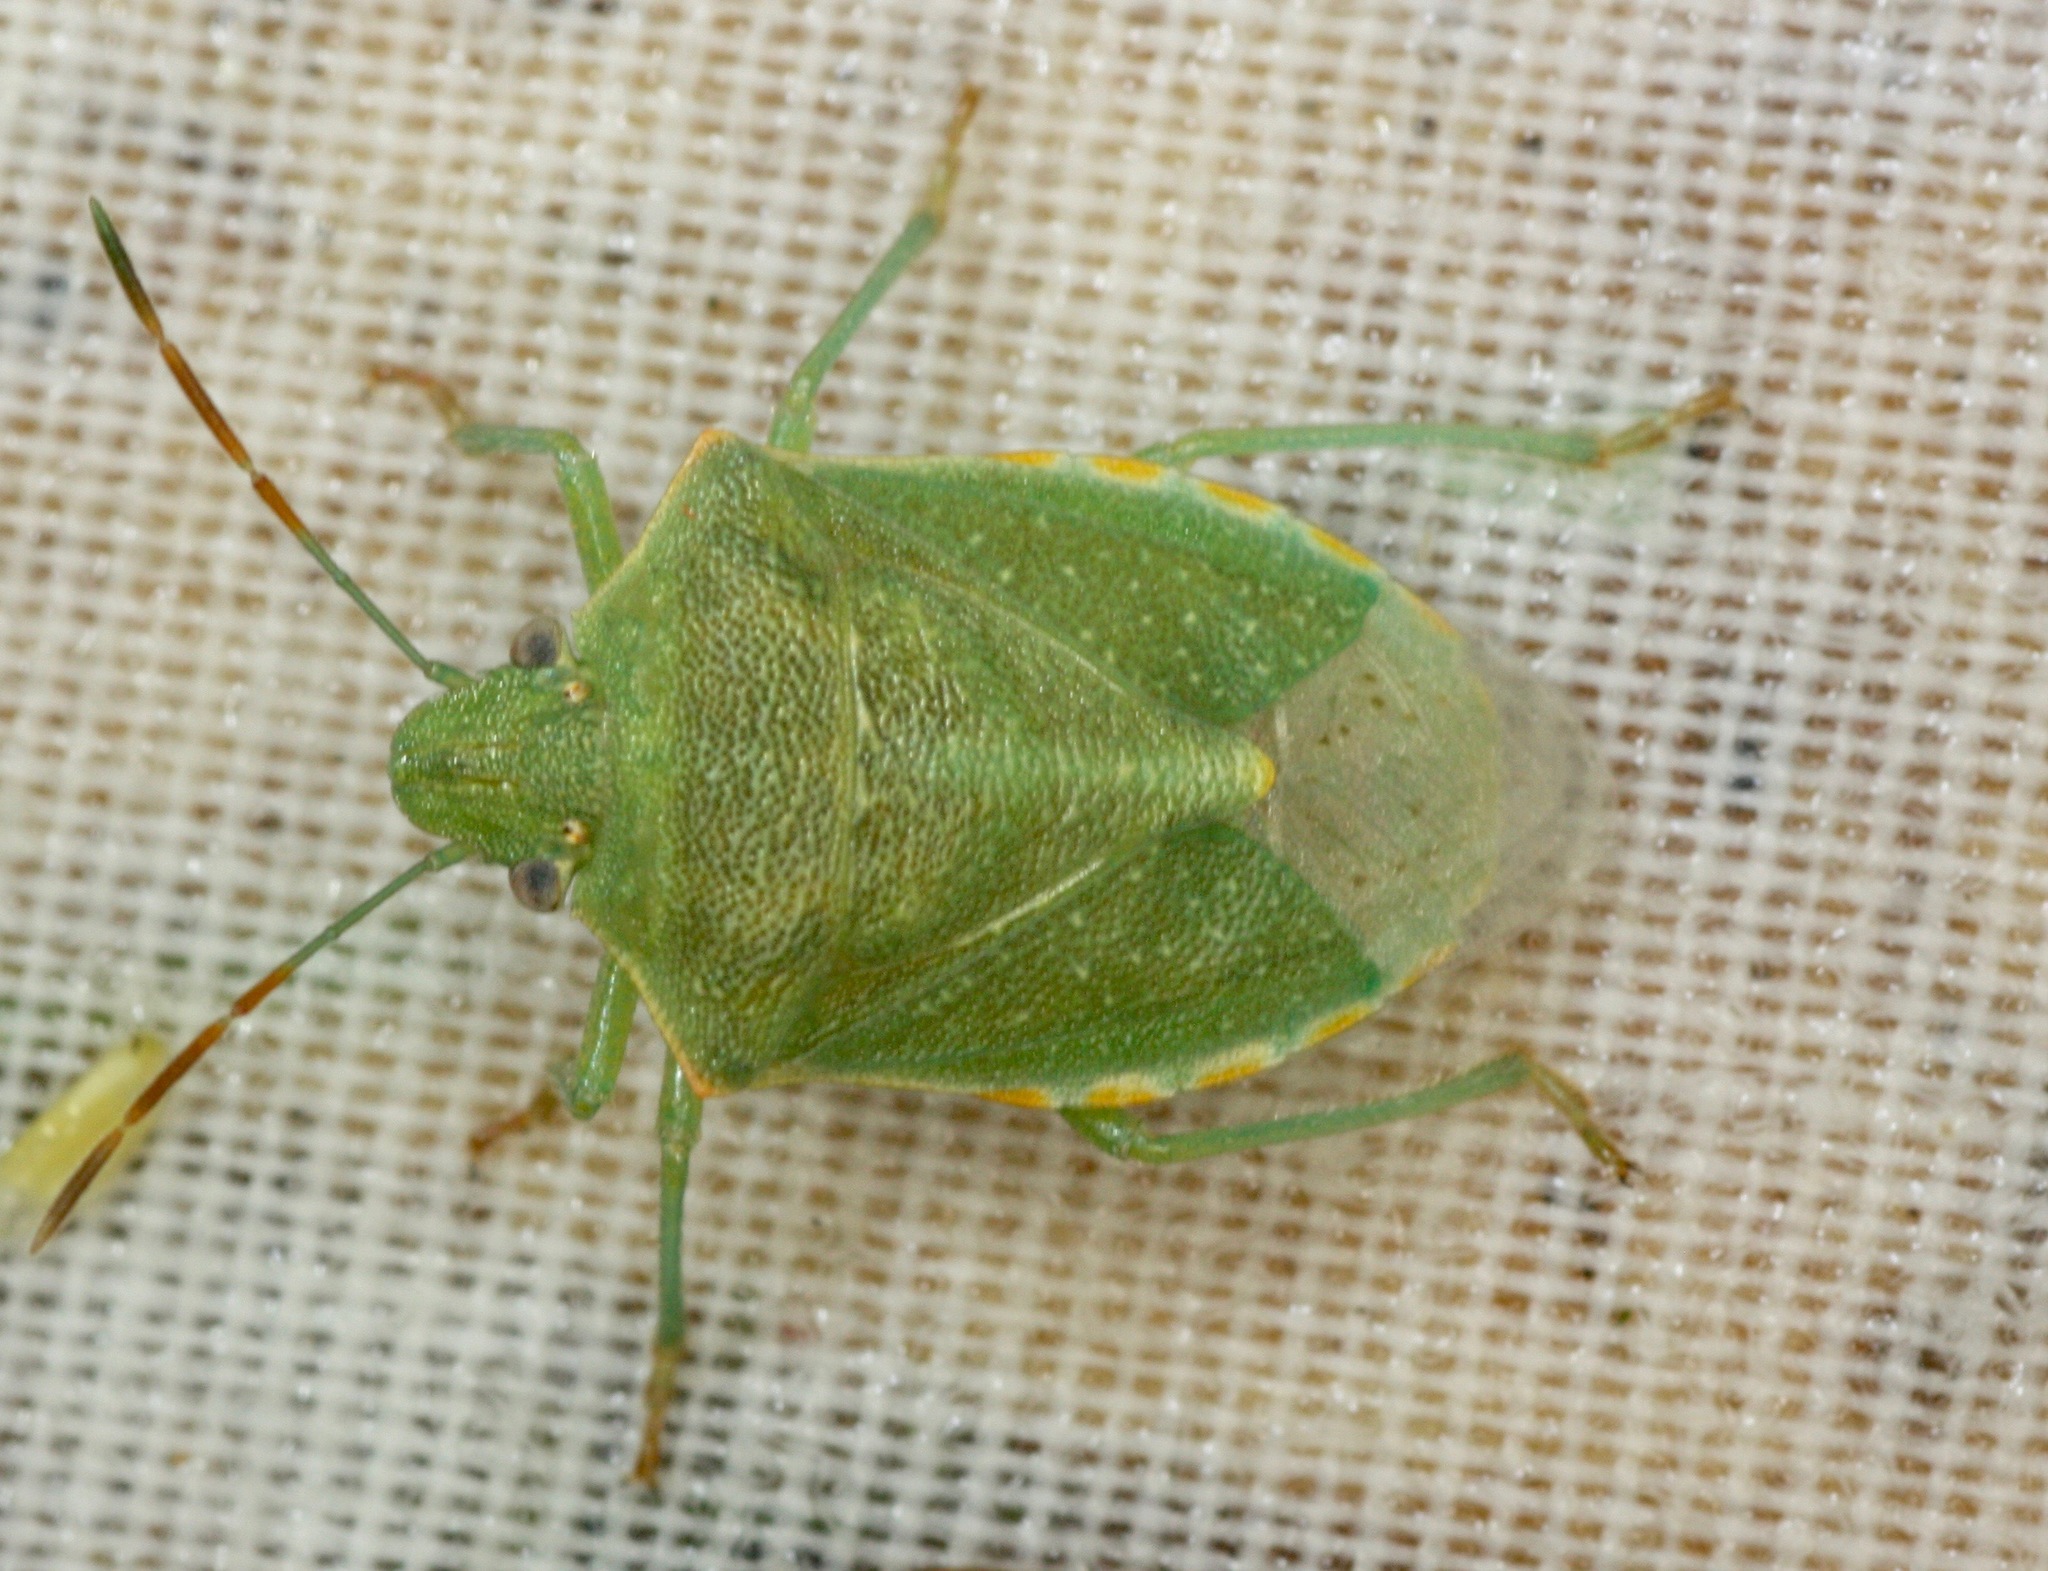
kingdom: Animalia
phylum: Arthropoda
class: Insecta
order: Hemiptera
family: Pentatomidae
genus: Thyanta
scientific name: Thyanta accerra
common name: Stink bug
